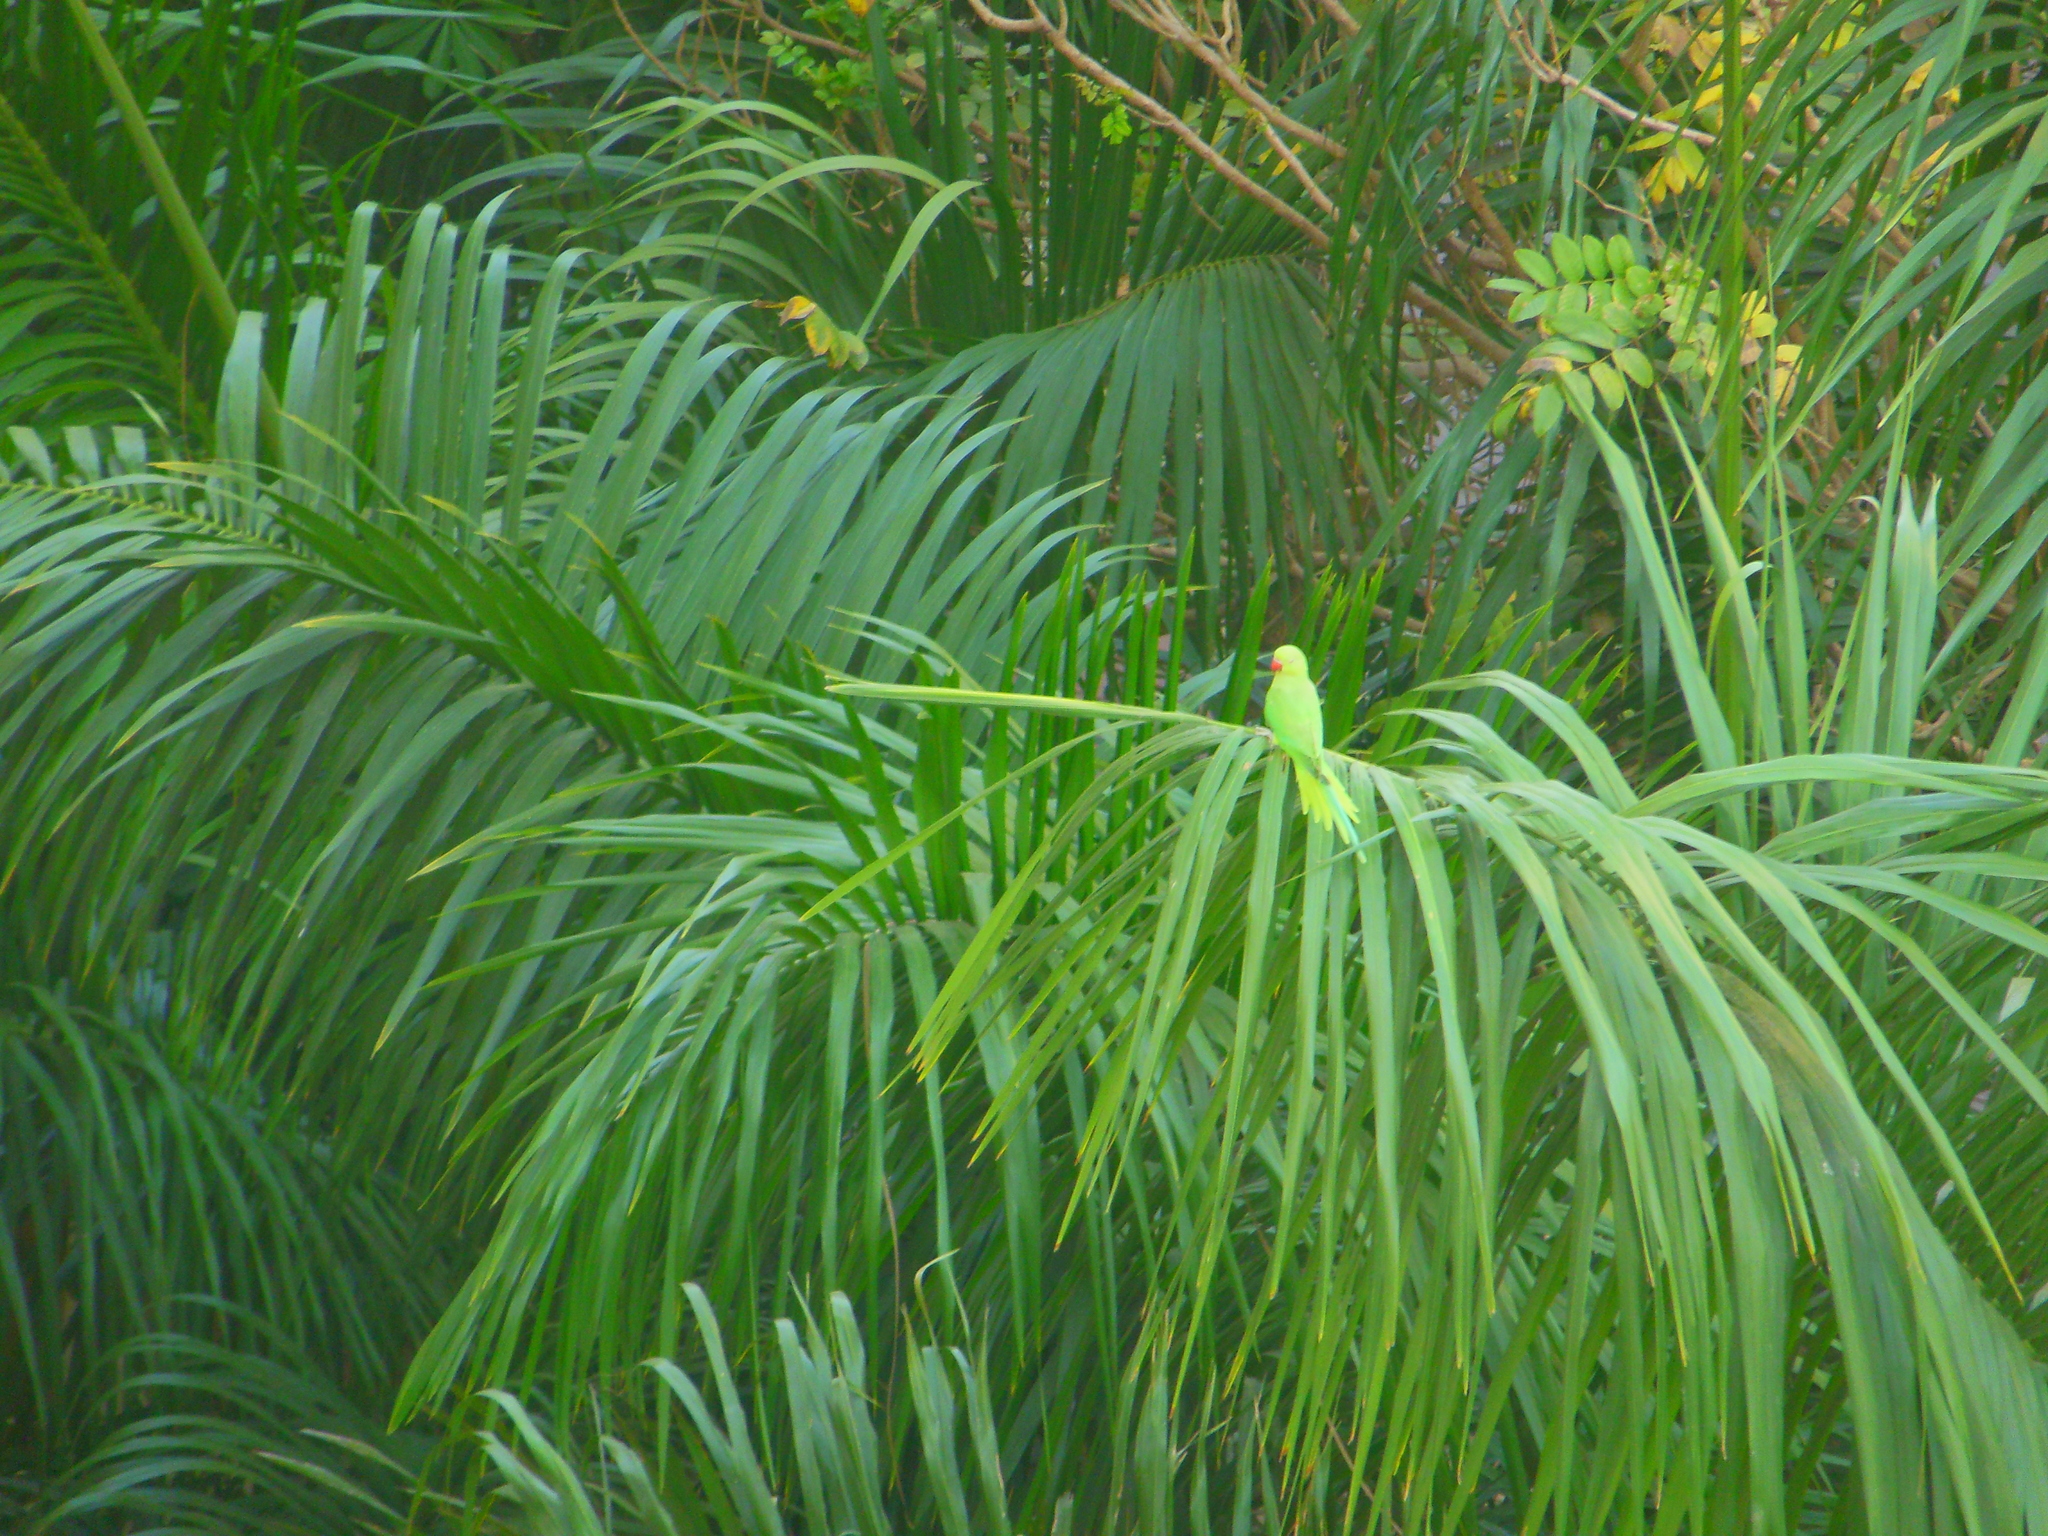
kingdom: Animalia
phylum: Chordata
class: Aves
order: Psittaciformes
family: Psittacidae
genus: Psittacula
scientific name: Psittacula krameri
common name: Rose-ringed parakeet
